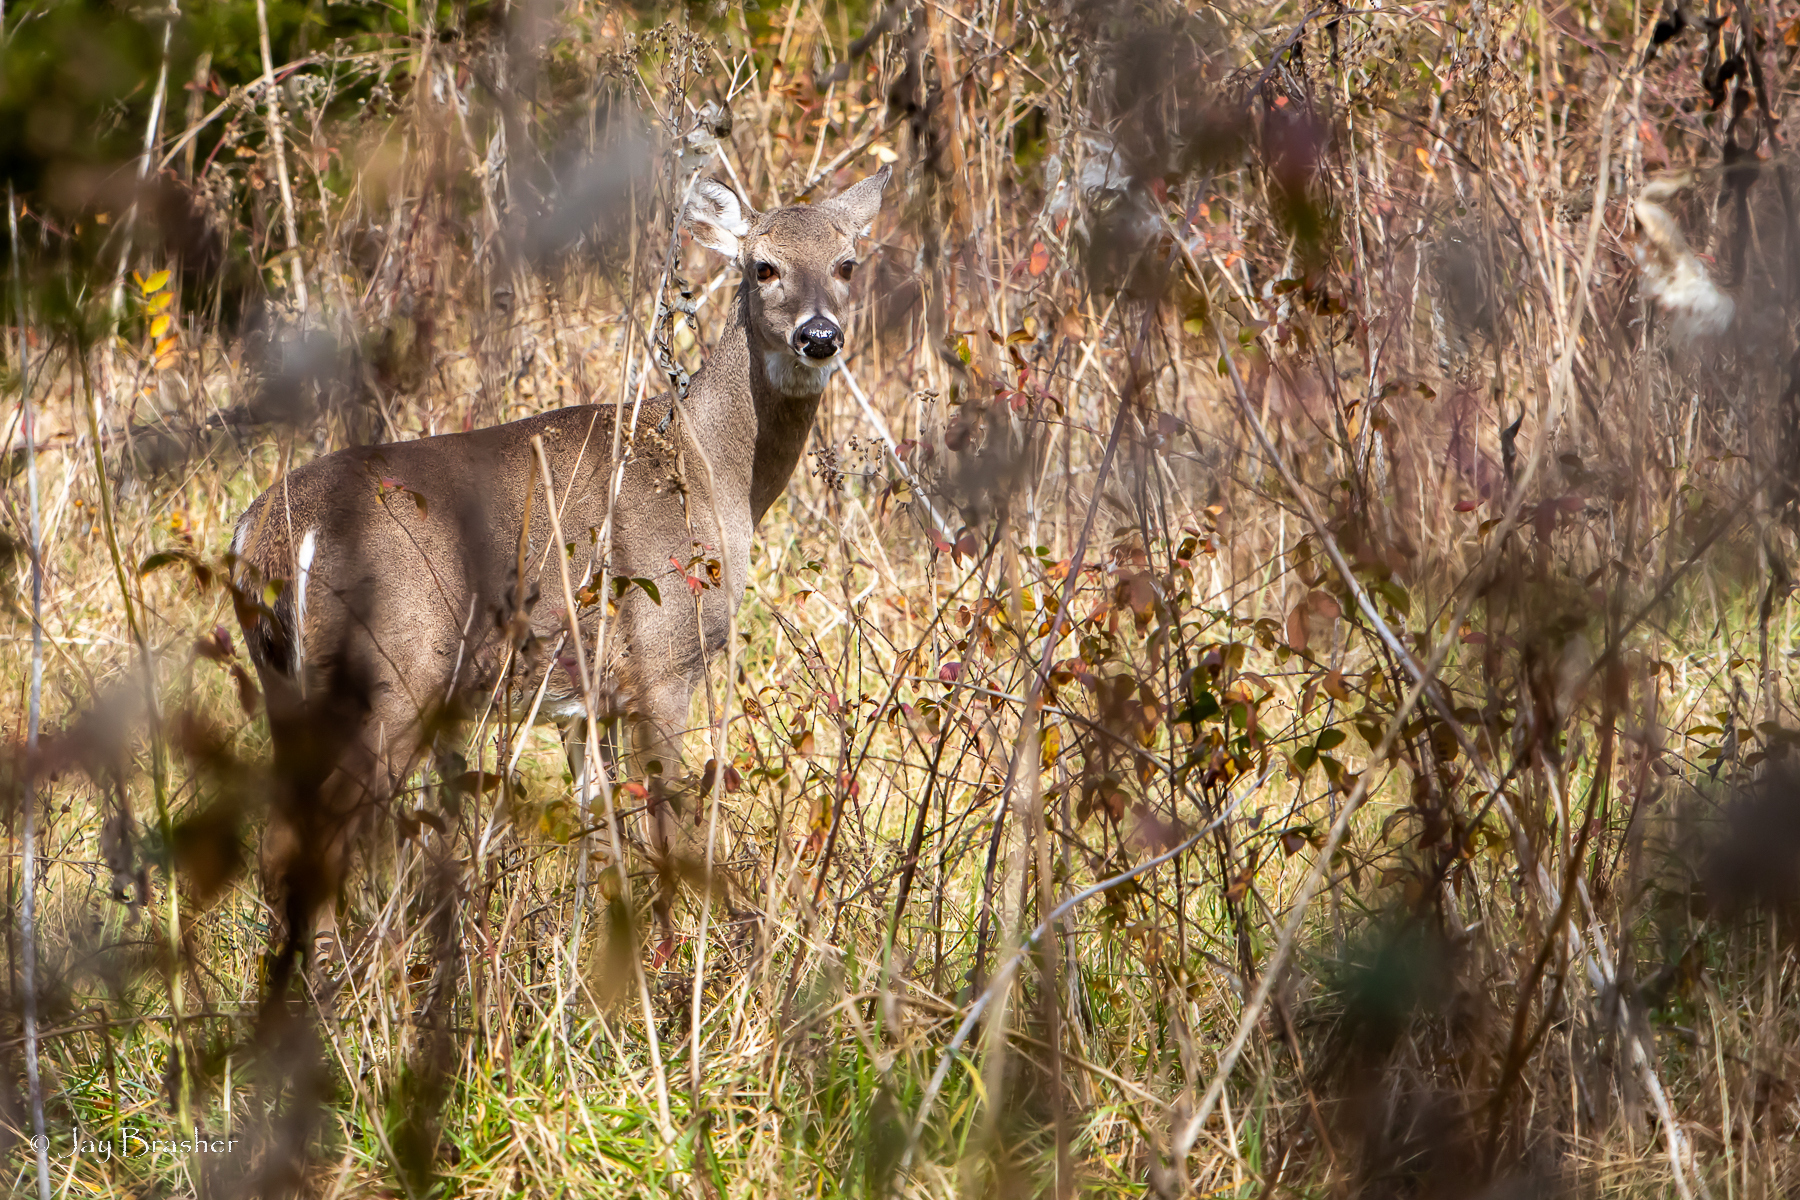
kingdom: Animalia
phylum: Chordata
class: Mammalia
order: Artiodactyla
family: Cervidae
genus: Odocoileus
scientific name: Odocoileus virginianus
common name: White-tailed deer
